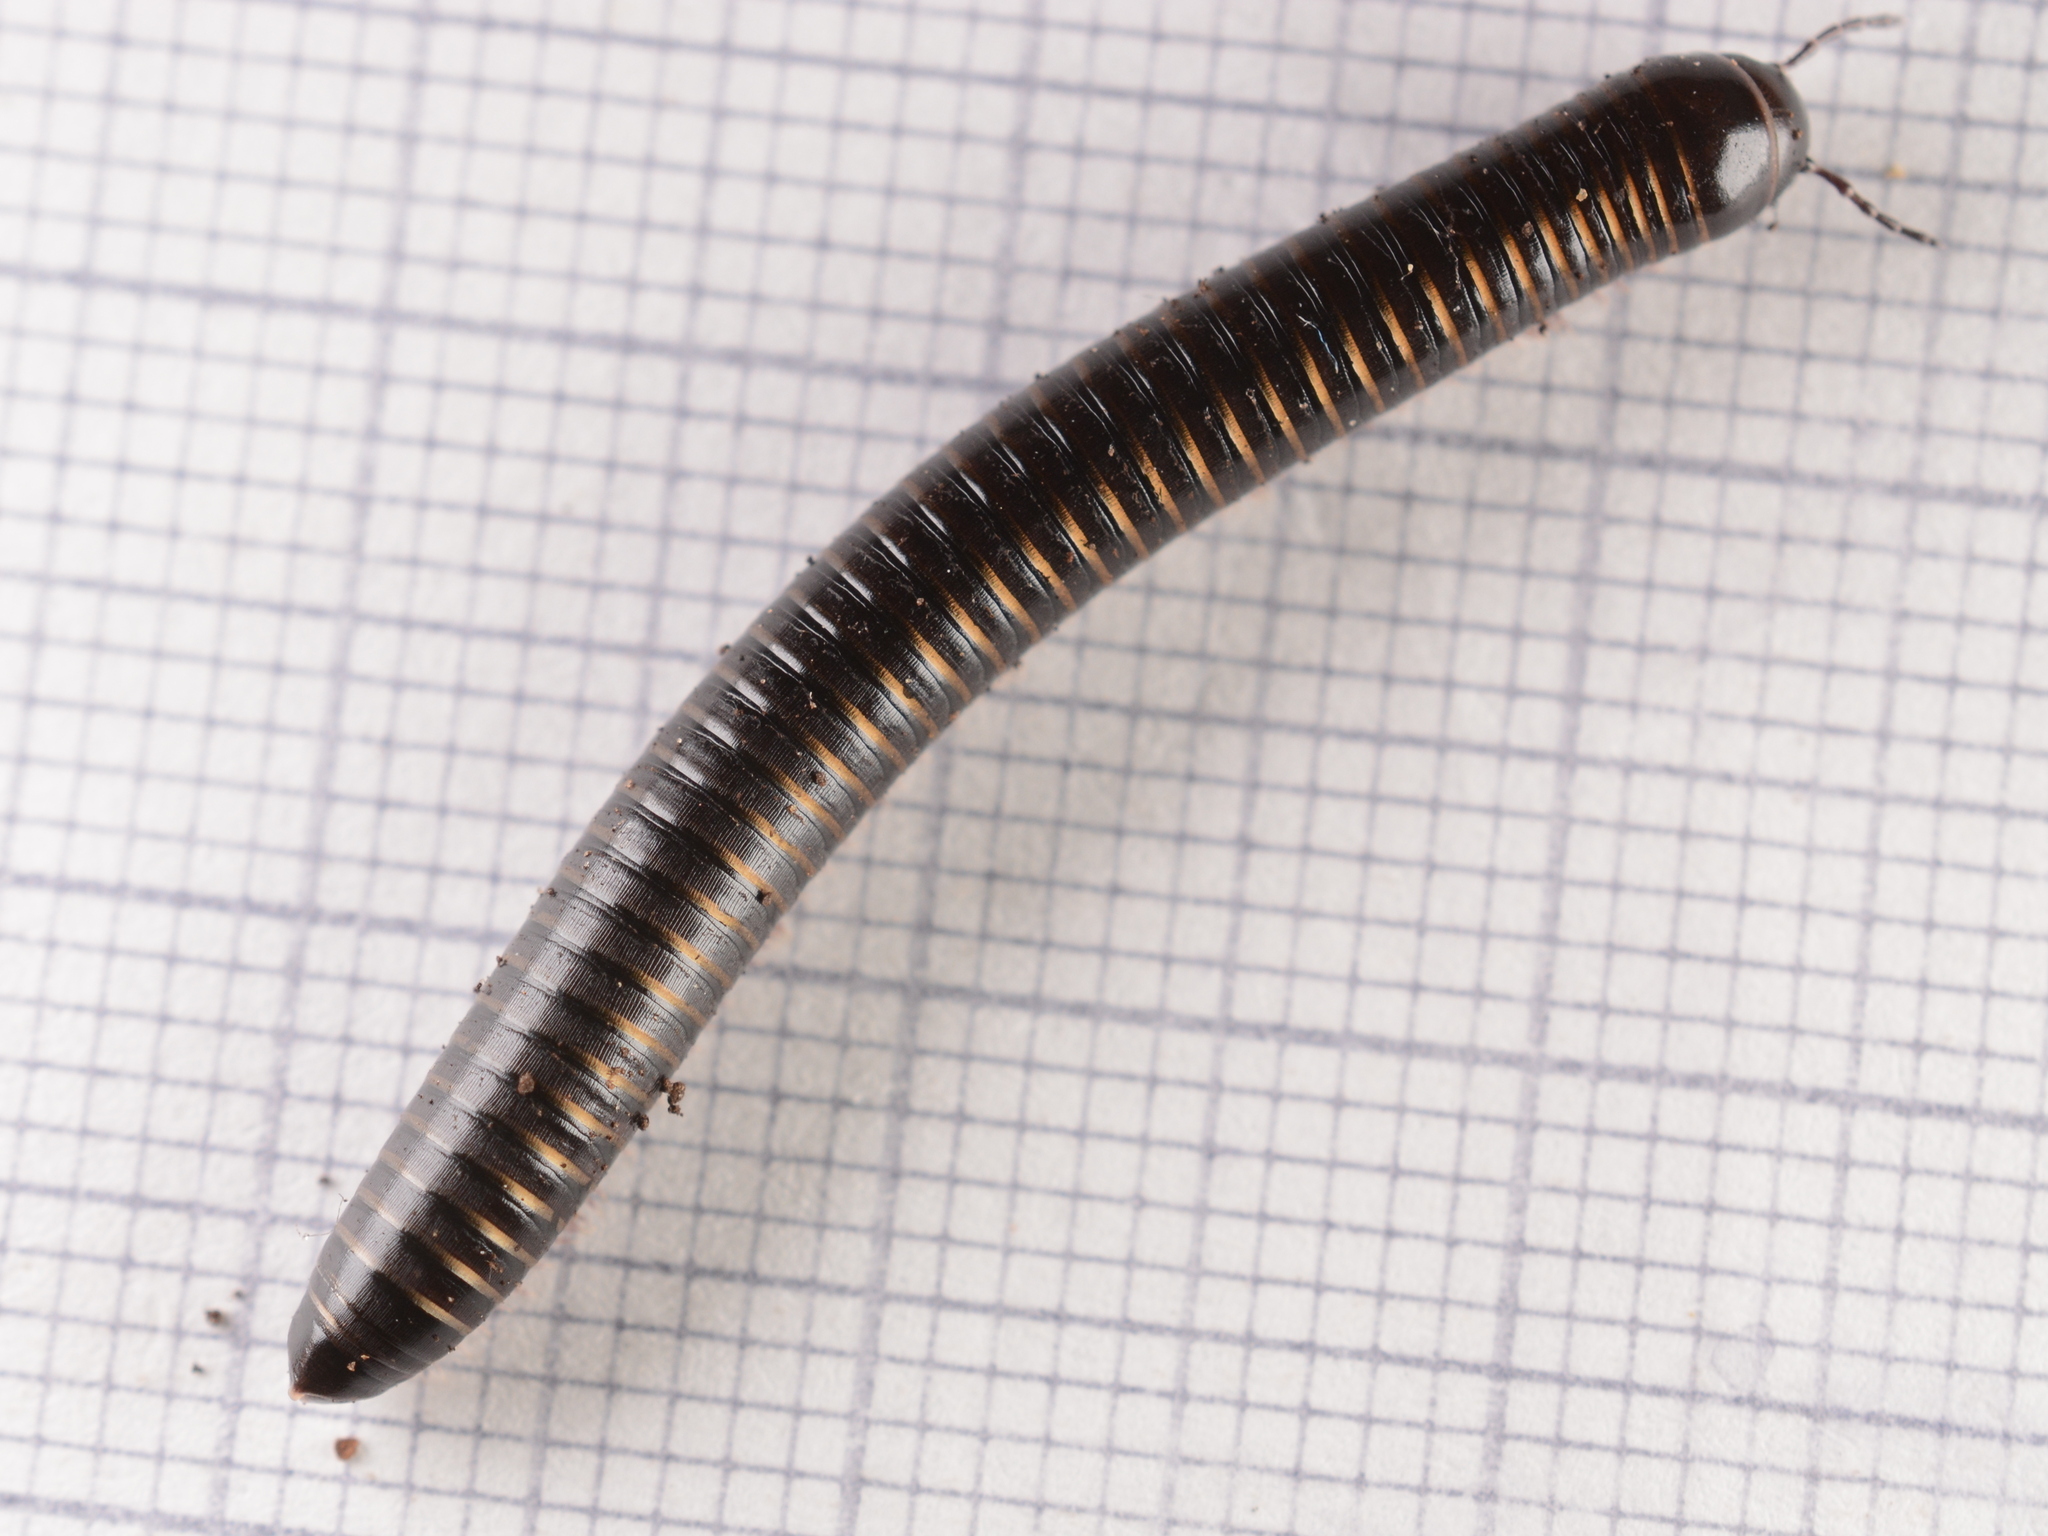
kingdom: Animalia
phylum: Arthropoda
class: Diplopoda
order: Julida
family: Julidae
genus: Cylindroiulus
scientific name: Cylindroiulus londinensis
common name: Black millipede
